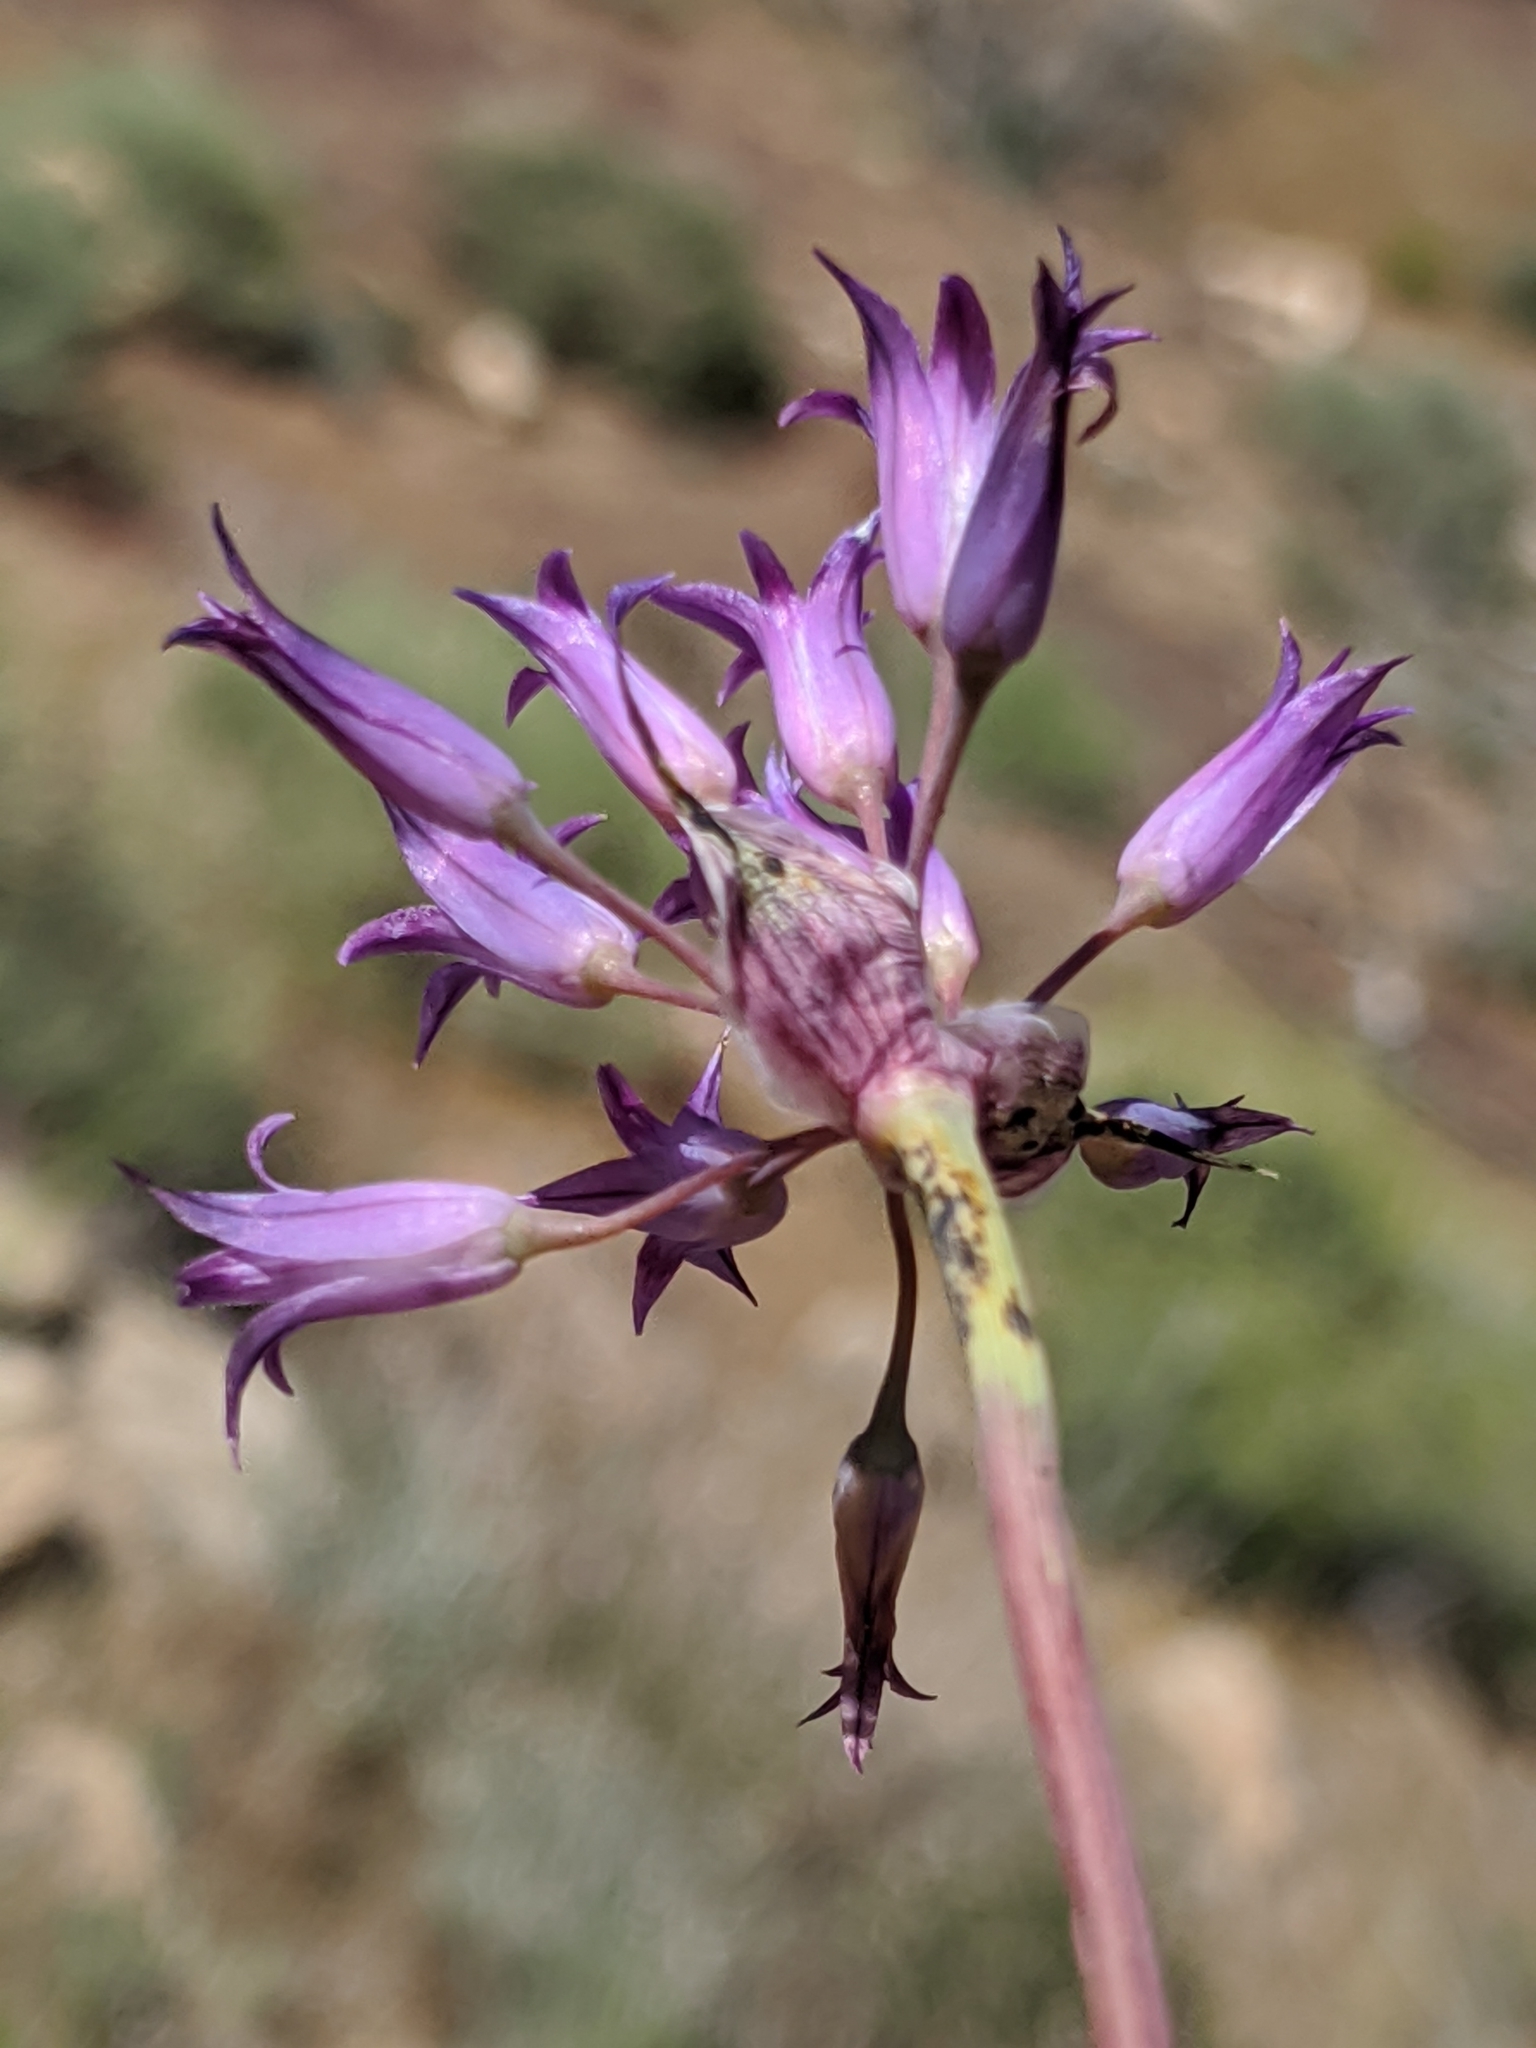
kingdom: Plantae
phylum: Tracheophyta
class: Liliopsida
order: Asparagales
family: Amaryllidaceae
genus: Allium
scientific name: Allium
